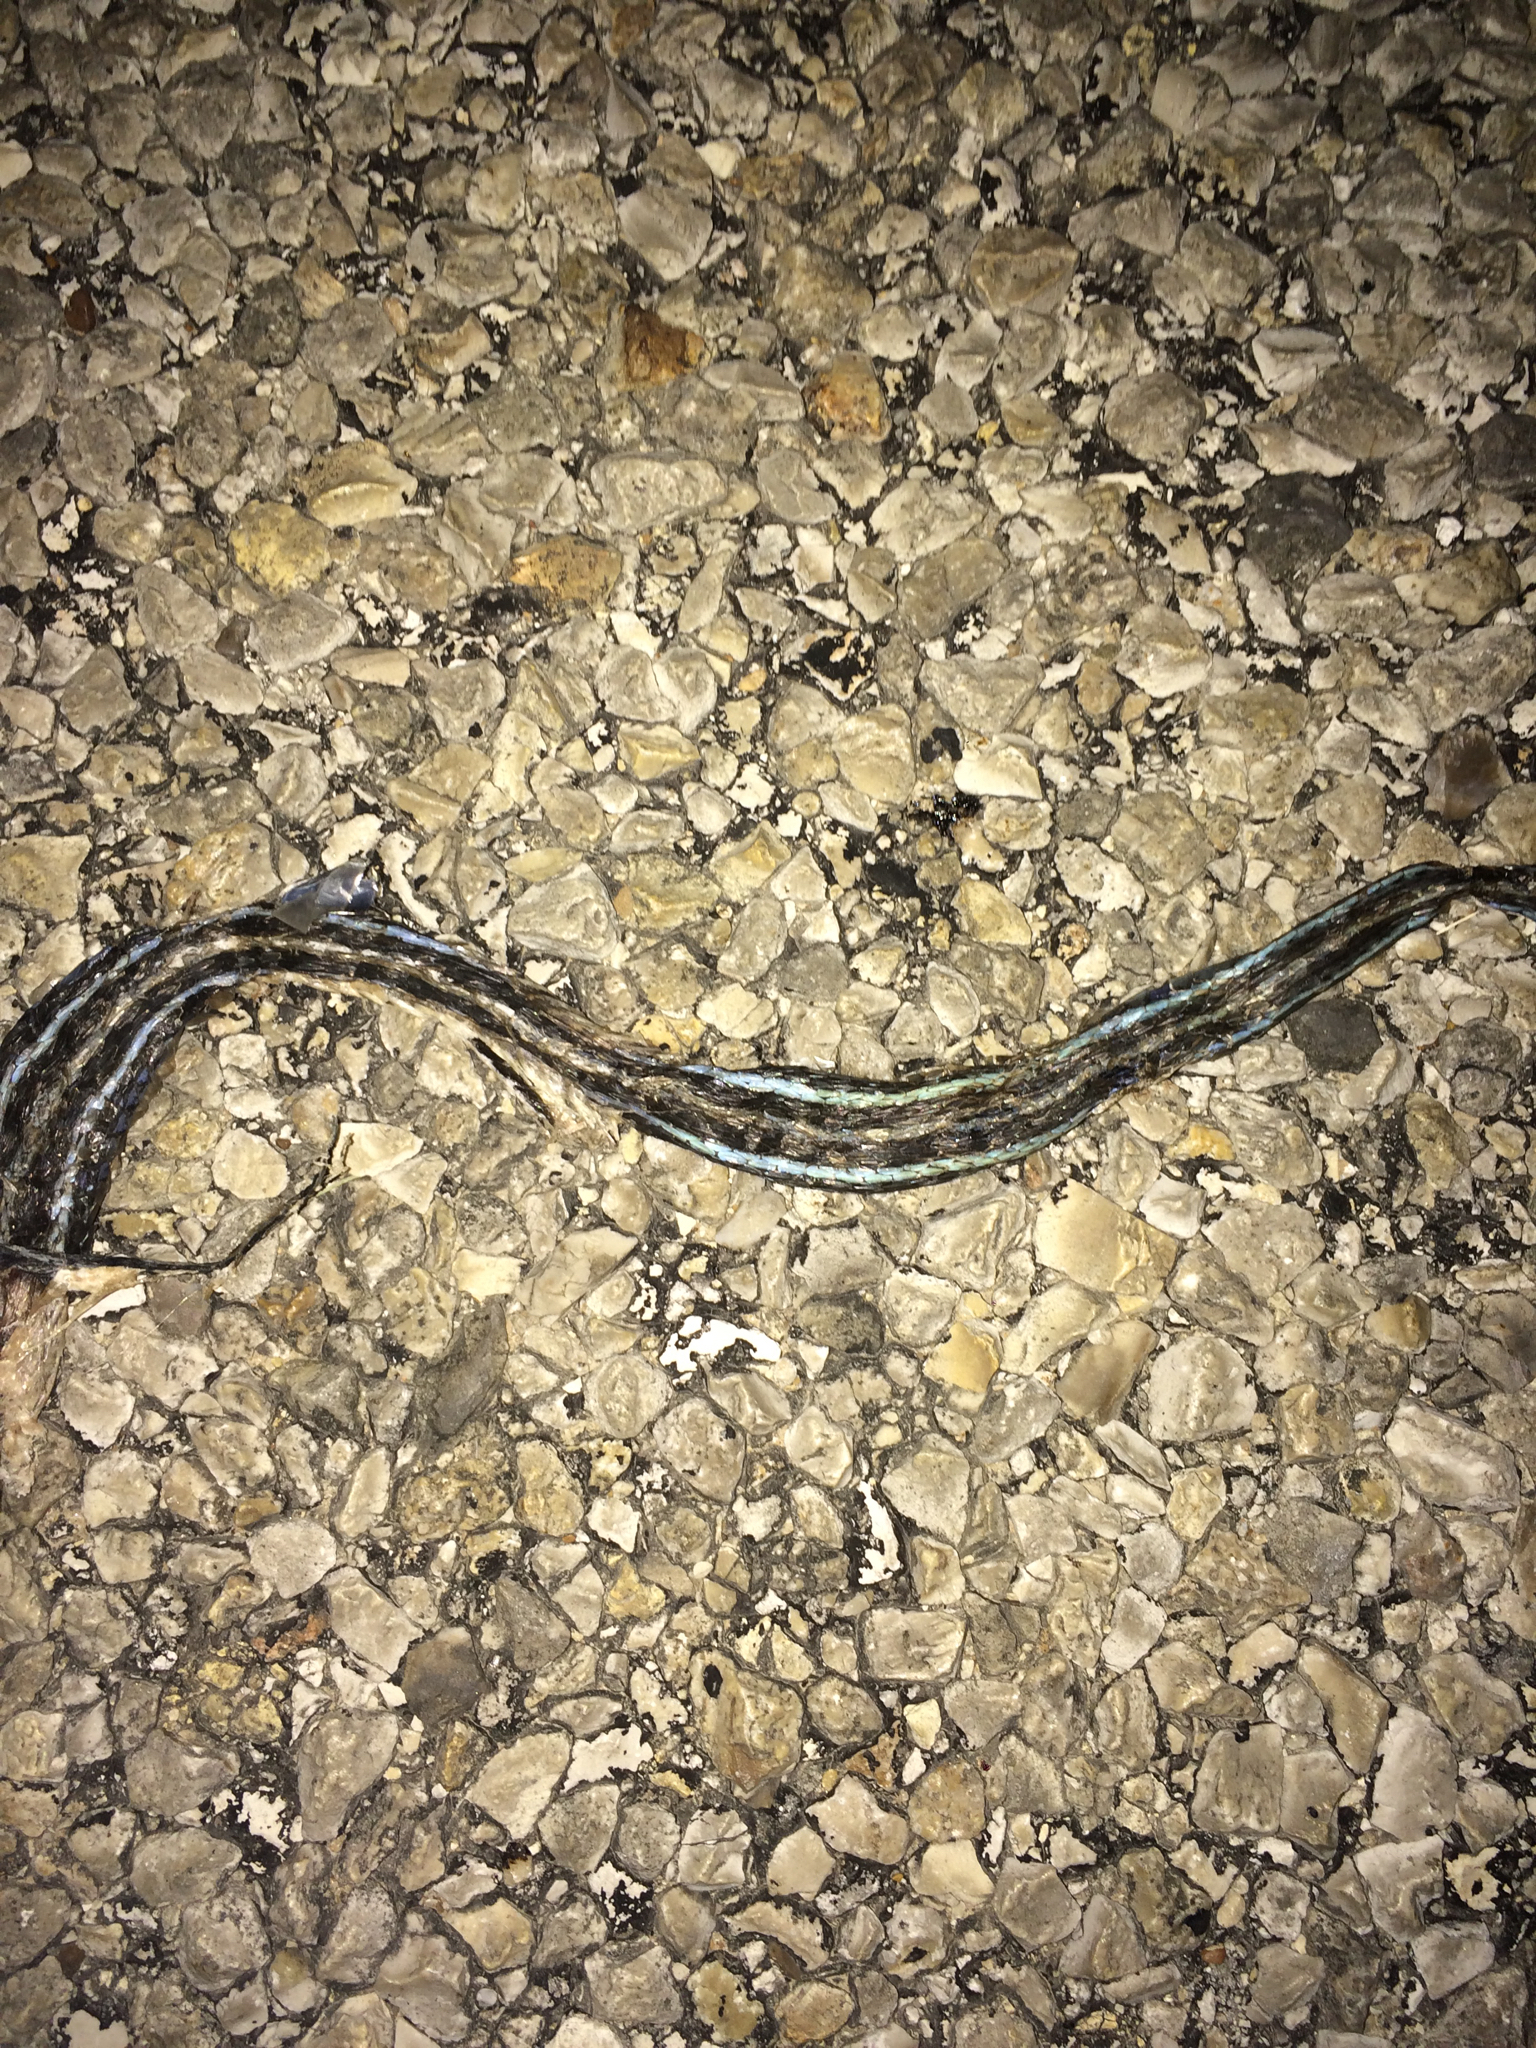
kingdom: Animalia
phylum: Chordata
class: Squamata
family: Colubridae
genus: Thamnophis
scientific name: Thamnophis proximus
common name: Western ribbon snake
